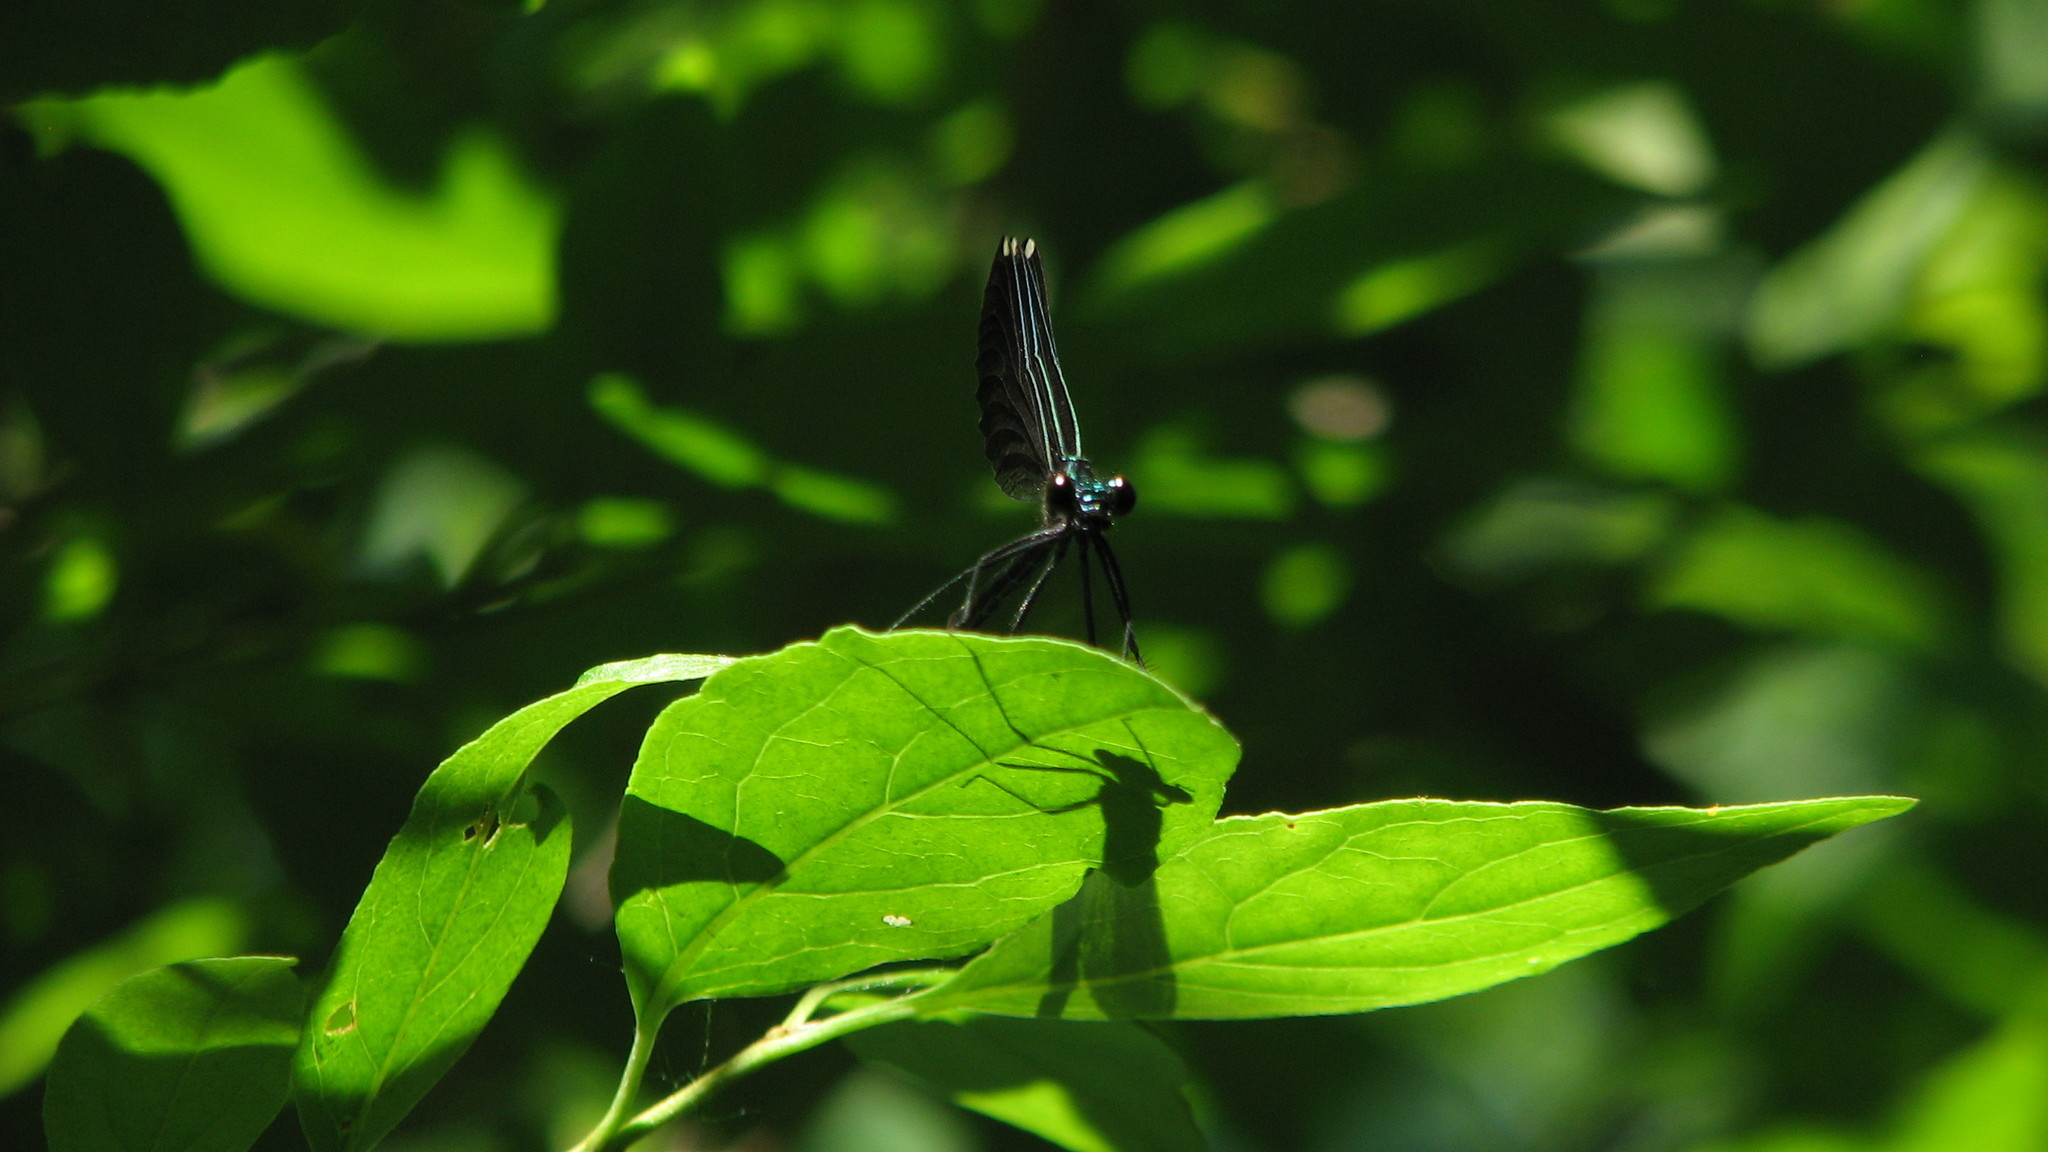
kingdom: Animalia
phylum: Arthropoda
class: Insecta
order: Odonata
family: Calopterygidae
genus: Calopteryx
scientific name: Calopteryx maculata
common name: Ebony jewelwing
